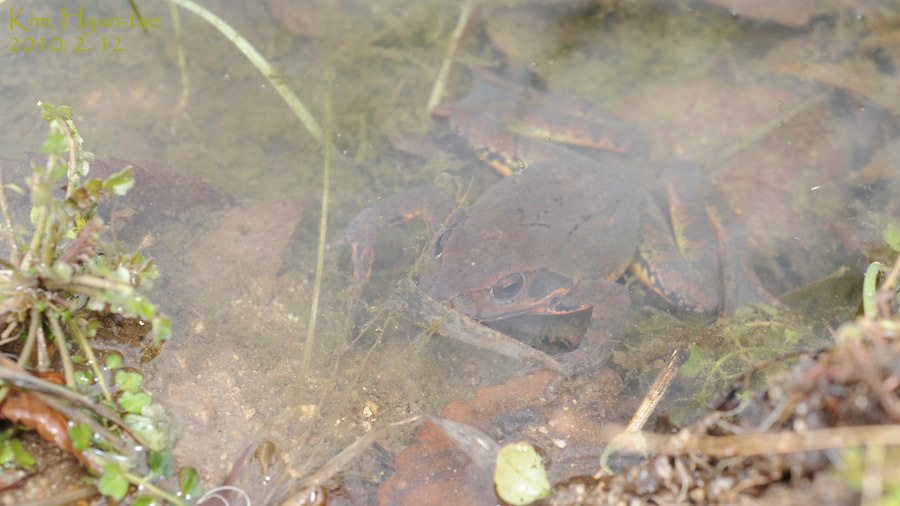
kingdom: Animalia
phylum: Chordata
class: Amphibia
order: Anura
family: Ranidae
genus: Rana
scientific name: Rana uenoi
